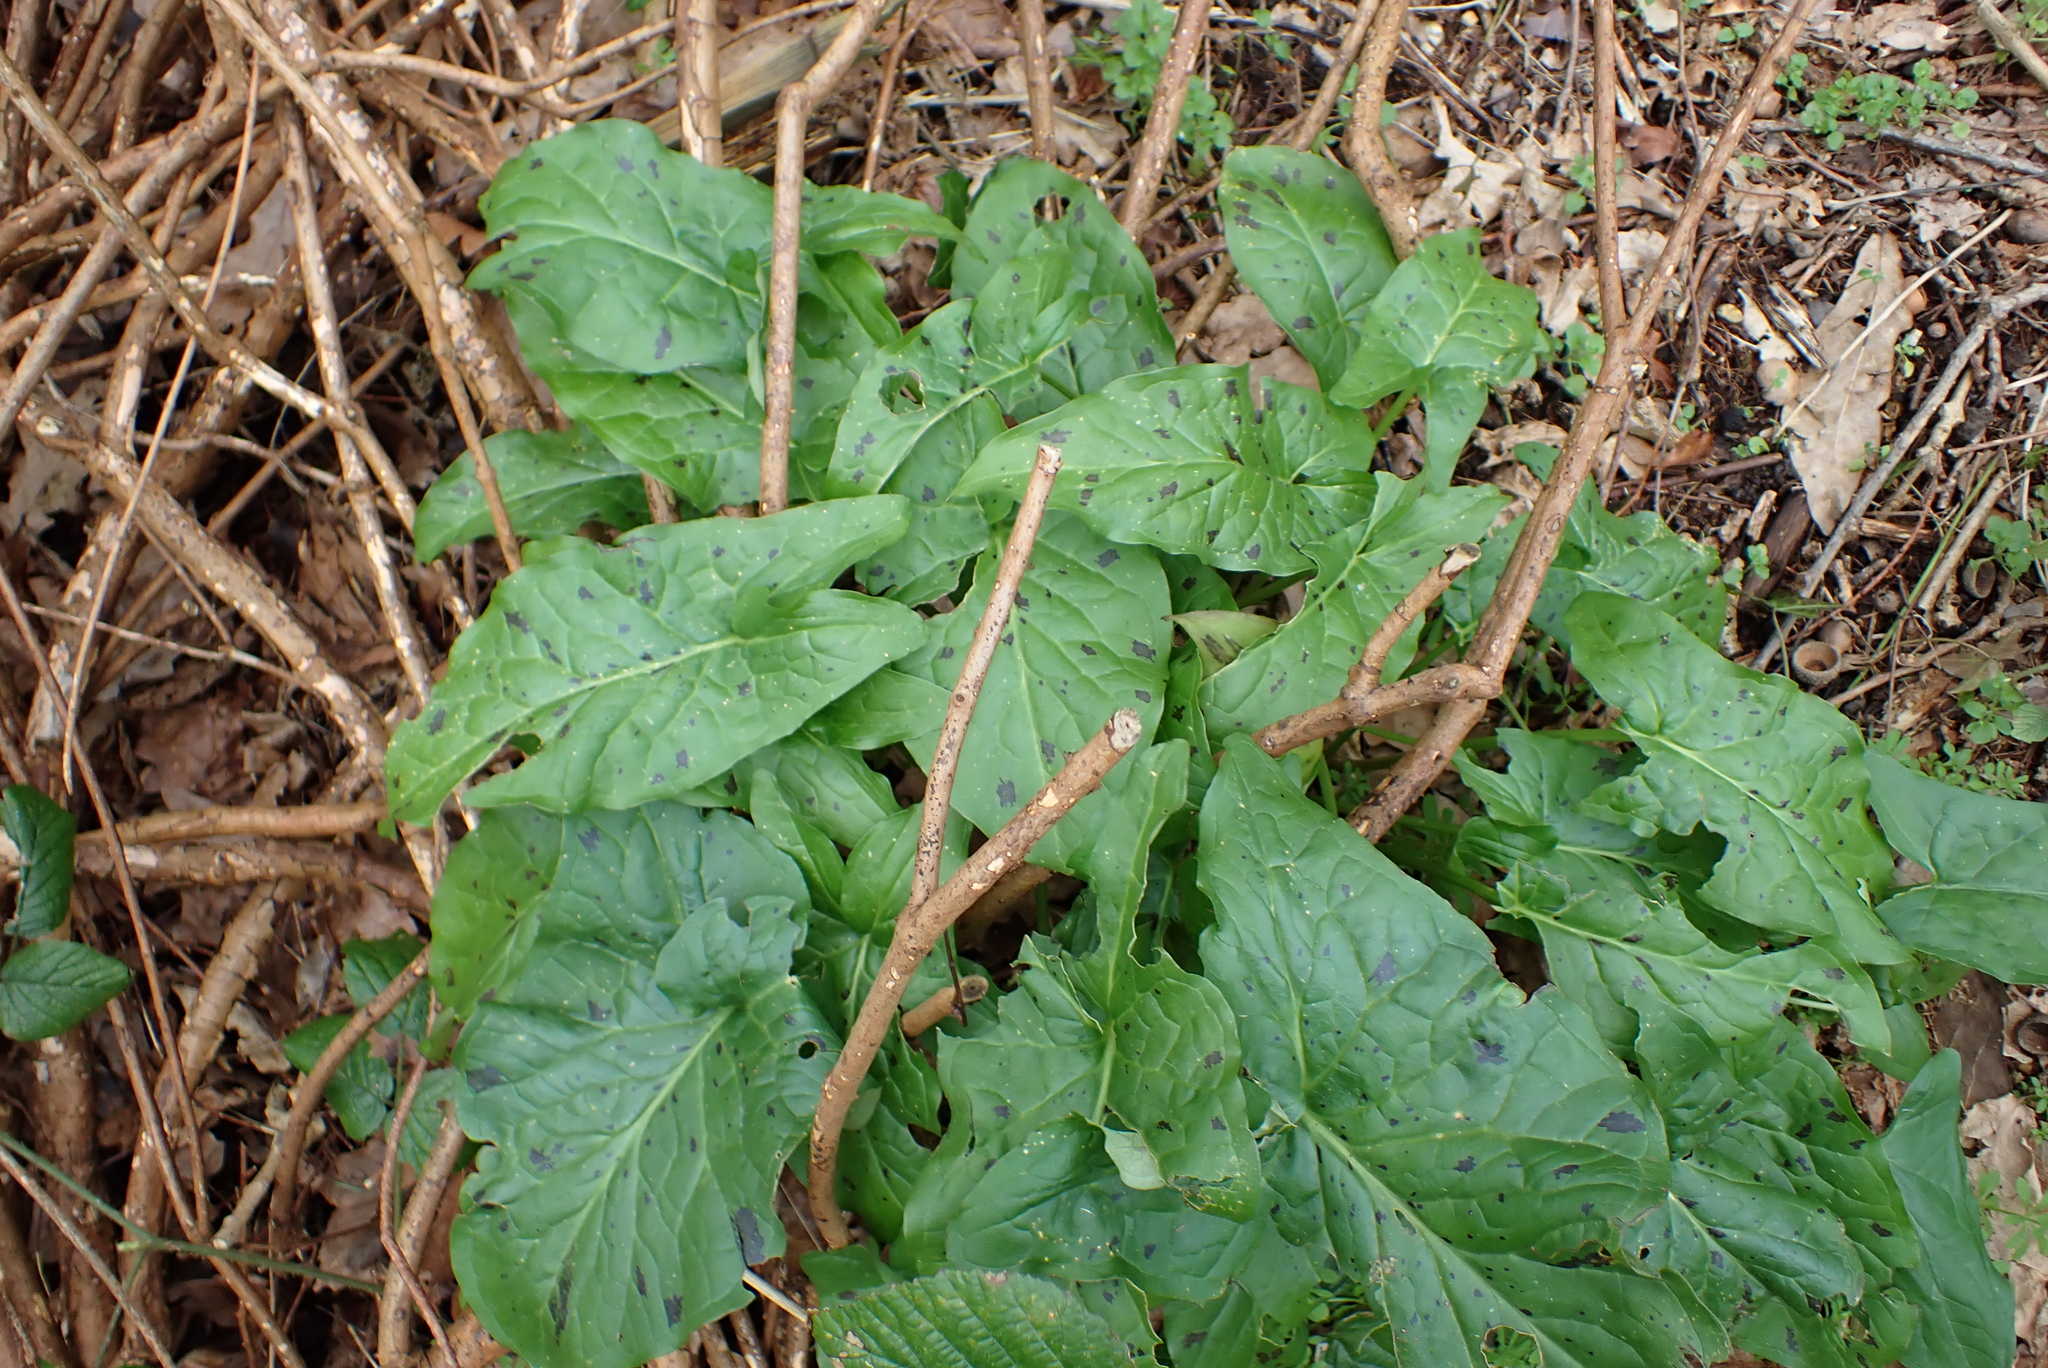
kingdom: Plantae
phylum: Tracheophyta
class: Liliopsida
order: Alismatales
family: Araceae
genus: Arum
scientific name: Arum maculatum
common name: Lords-and-ladies
